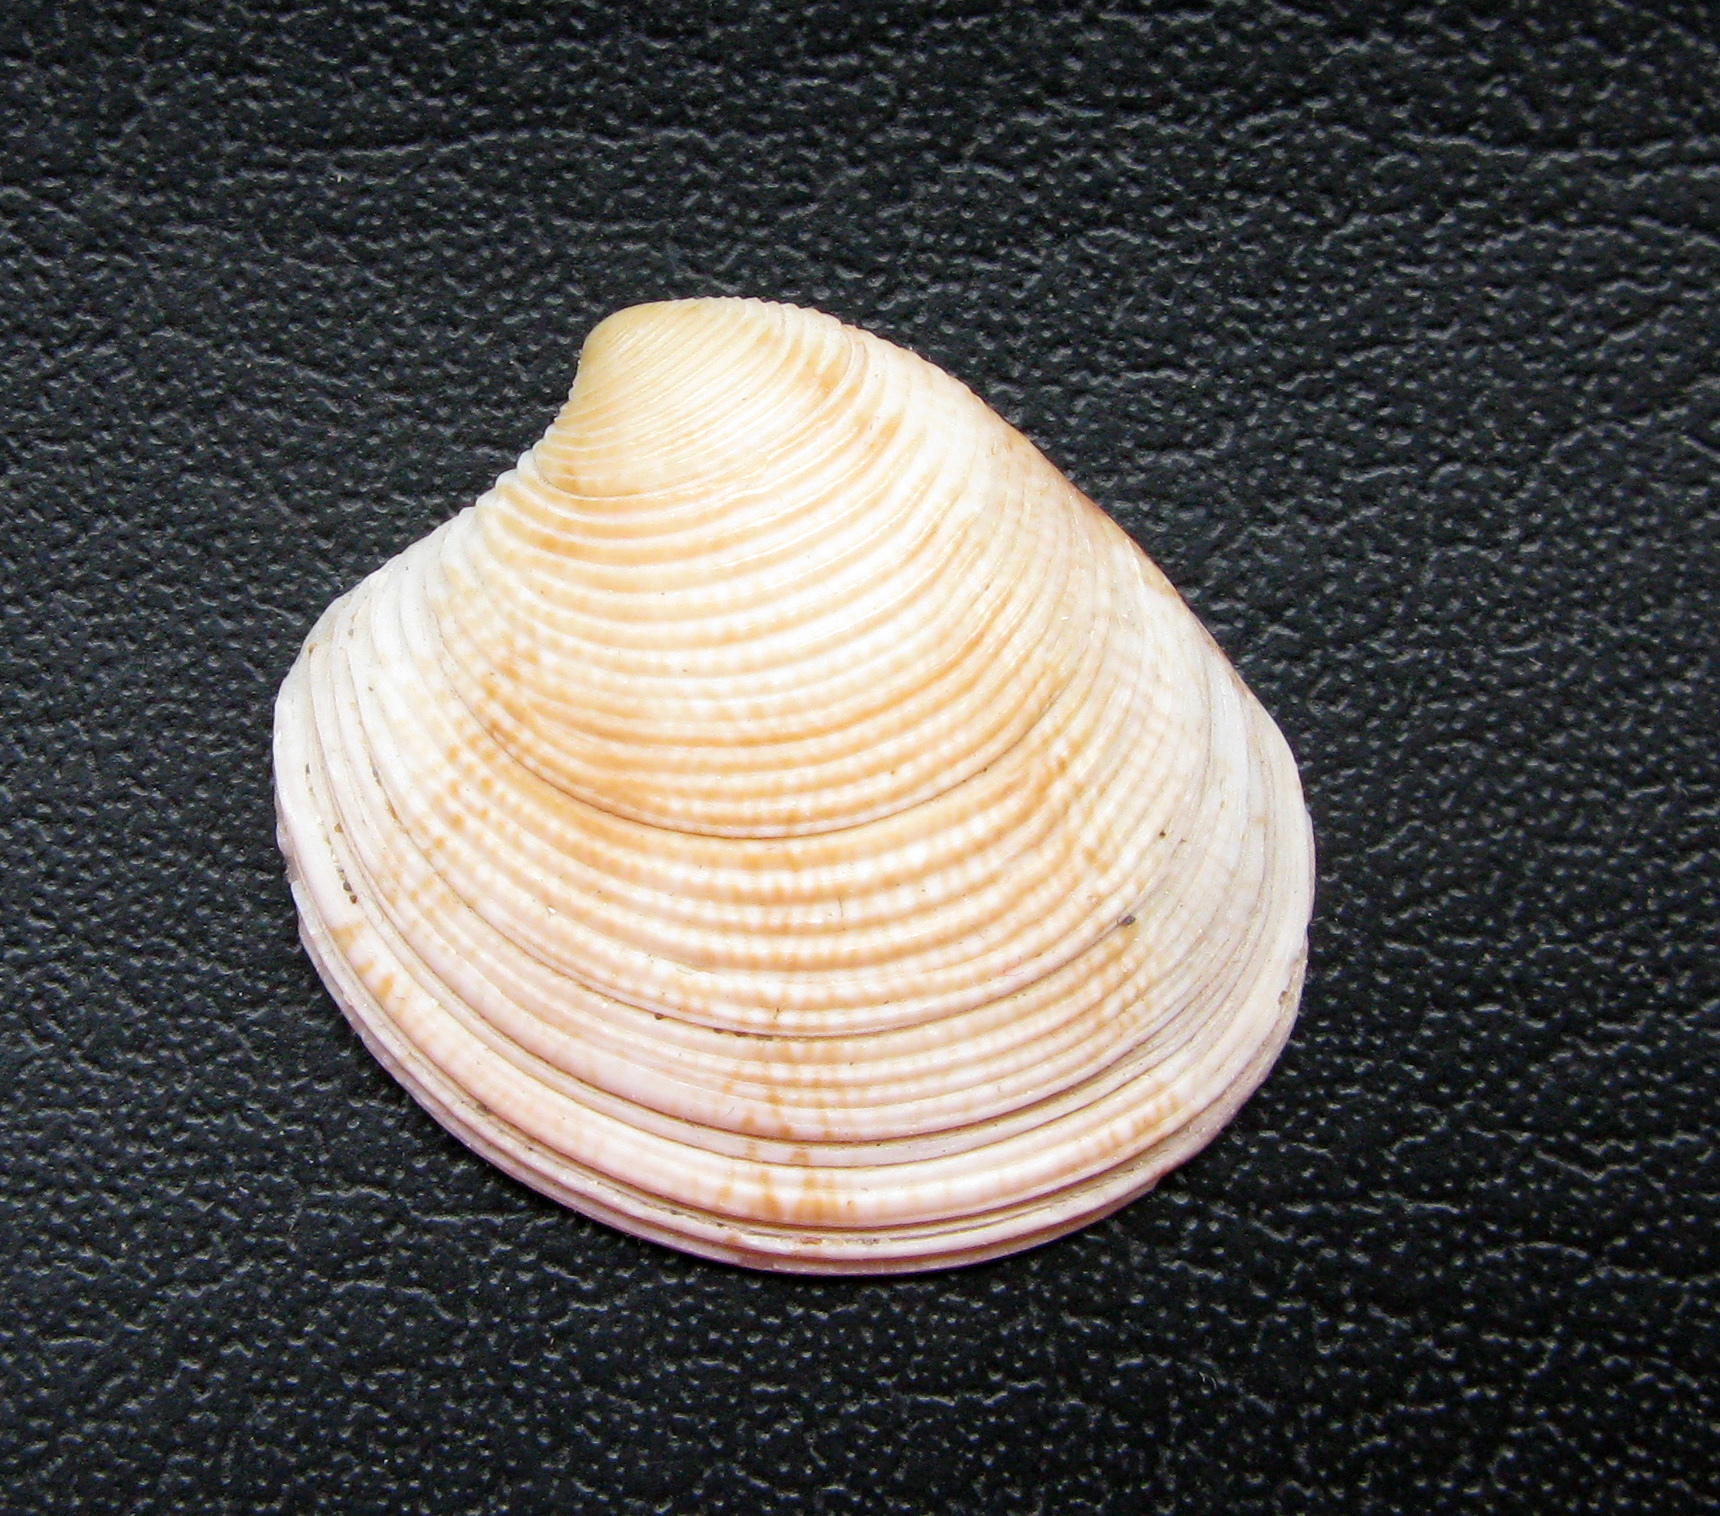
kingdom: Animalia
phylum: Mollusca
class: Bivalvia
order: Venerida
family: Veneridae
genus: Chamelea
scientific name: Chamelea gallina
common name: Chicken venus
